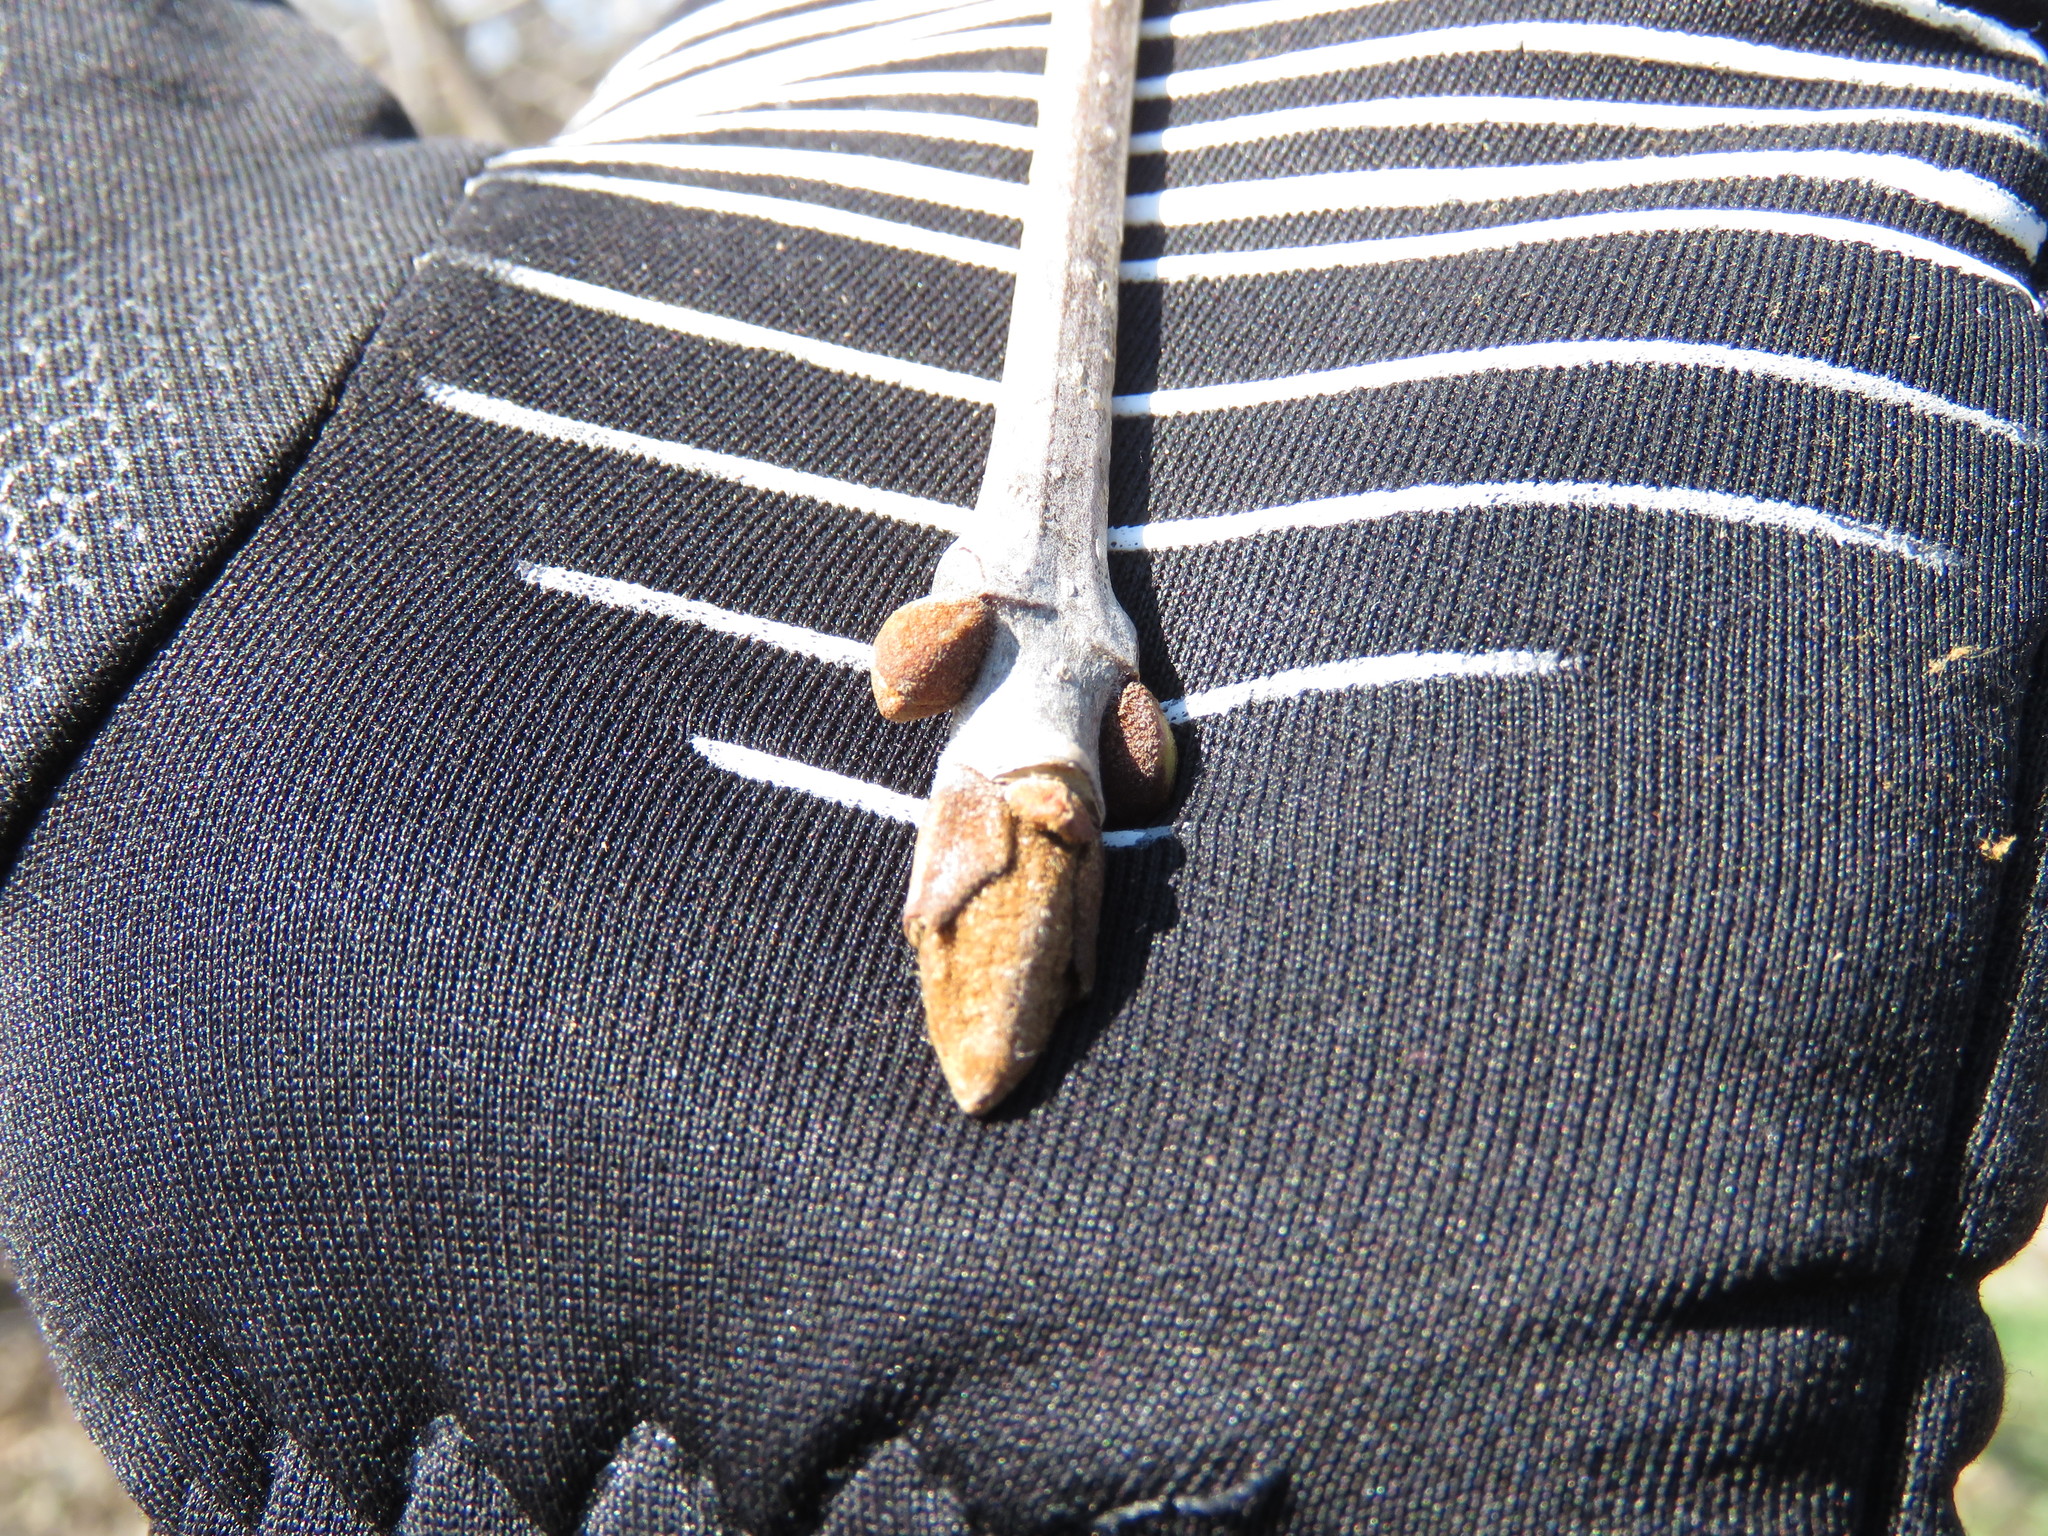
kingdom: Plantae
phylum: Tracheophyta
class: Magnoliopsida
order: Lamiales
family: Oleaceae
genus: Fraxinus
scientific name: Fraxinus pennsylvanica
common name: Green ash
